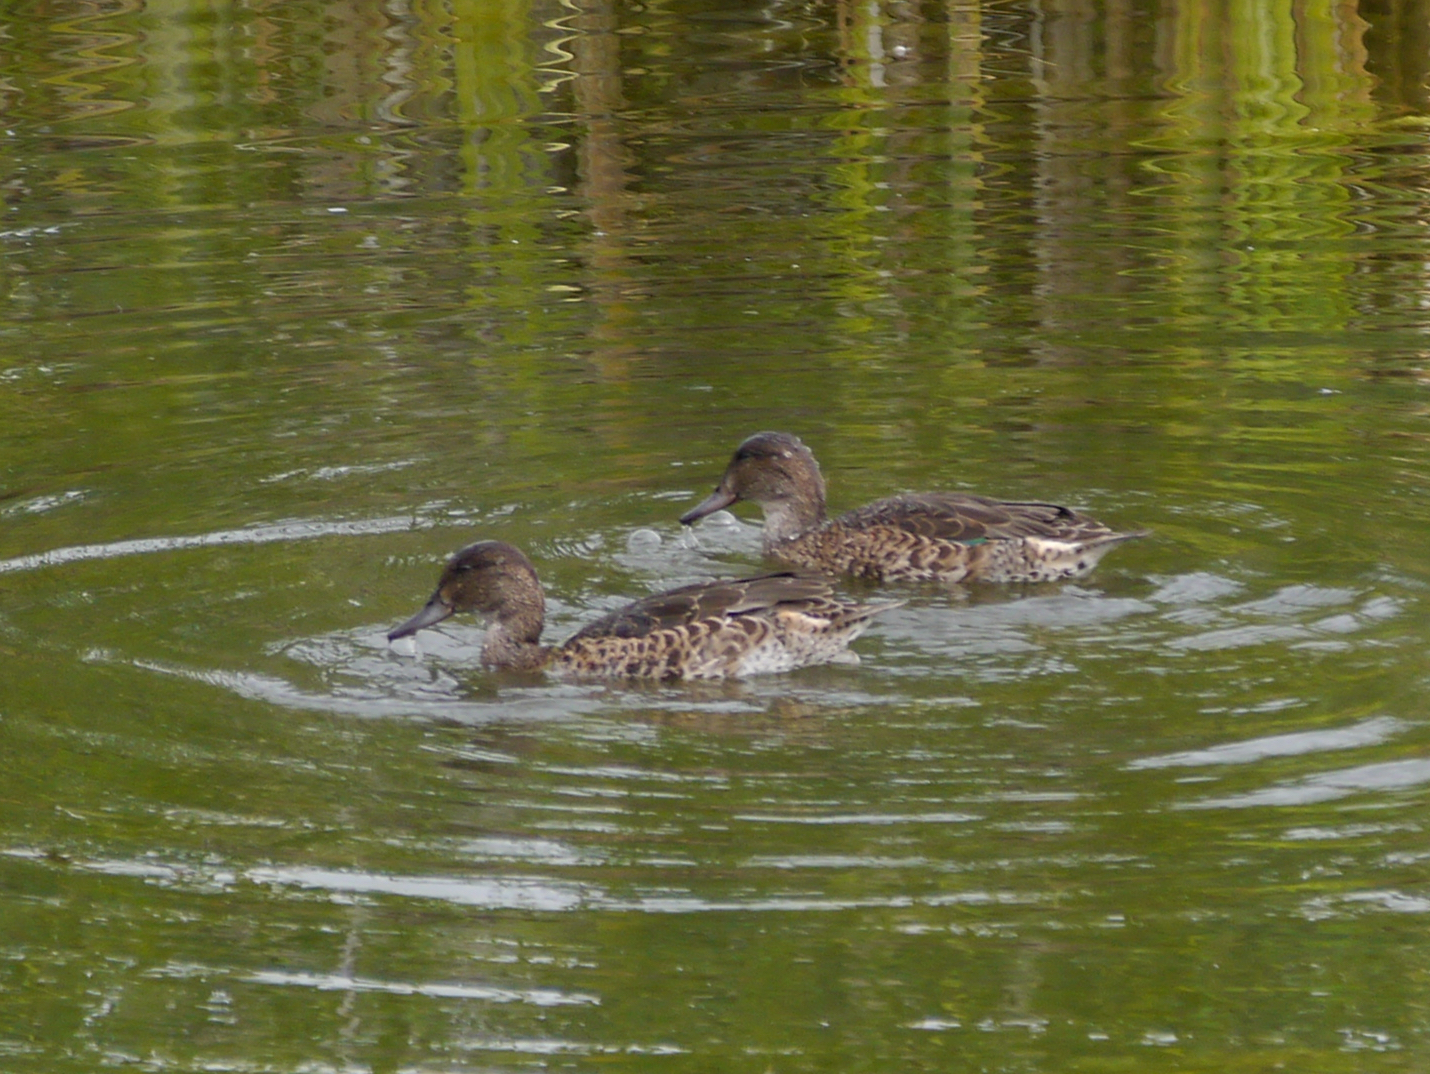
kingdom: Animalia
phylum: Chordata
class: Aves
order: Anseriformes
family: Anatidae
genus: Anas
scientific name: Anas crecca
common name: Eurasian teal
